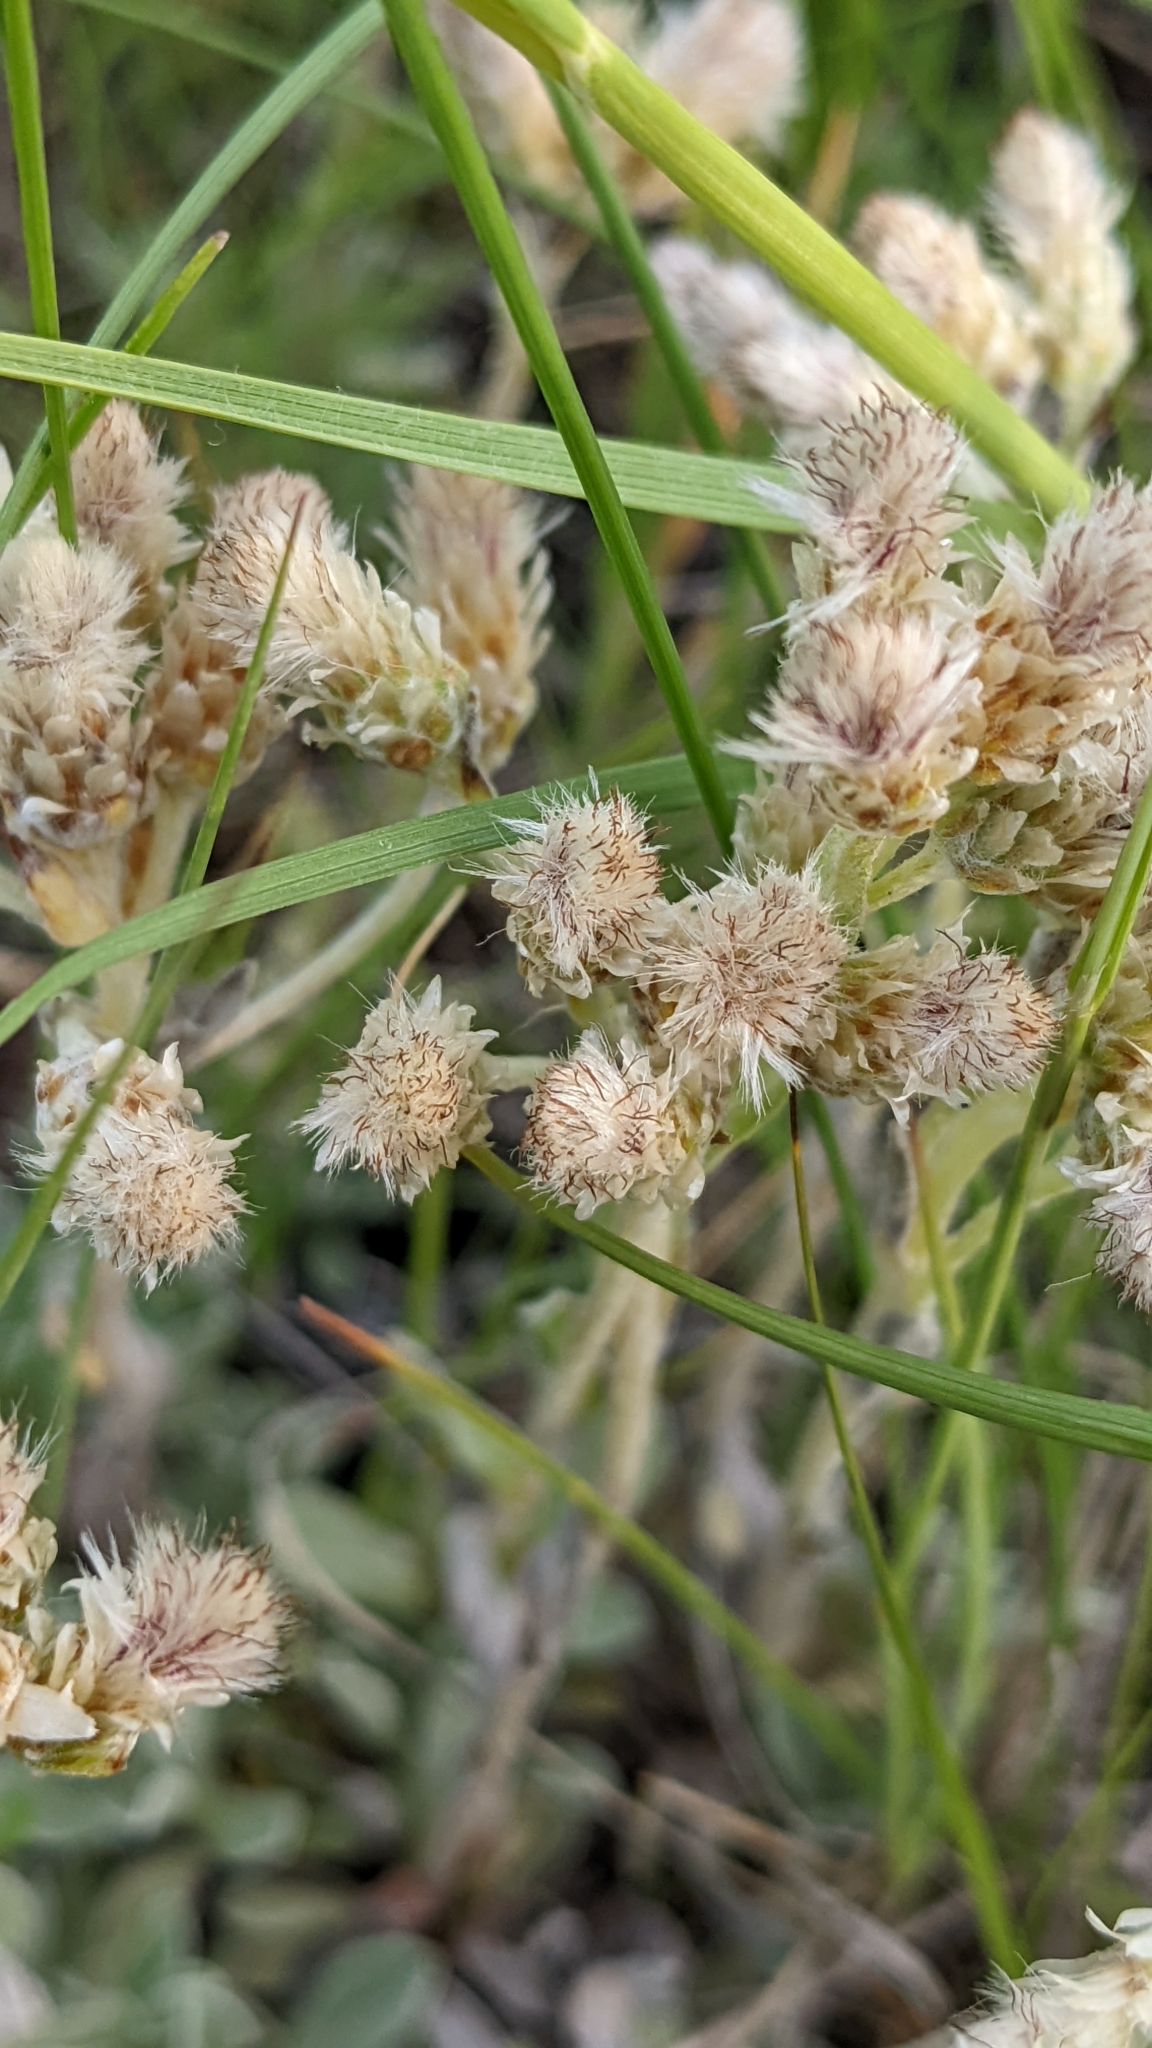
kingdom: Plantae
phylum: Tracheophyta
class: Magnoliopsida
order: Asterales
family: Asteraceae
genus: Antennaria
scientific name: Antennaria parvifolia
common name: Nuttall's pussytoes
